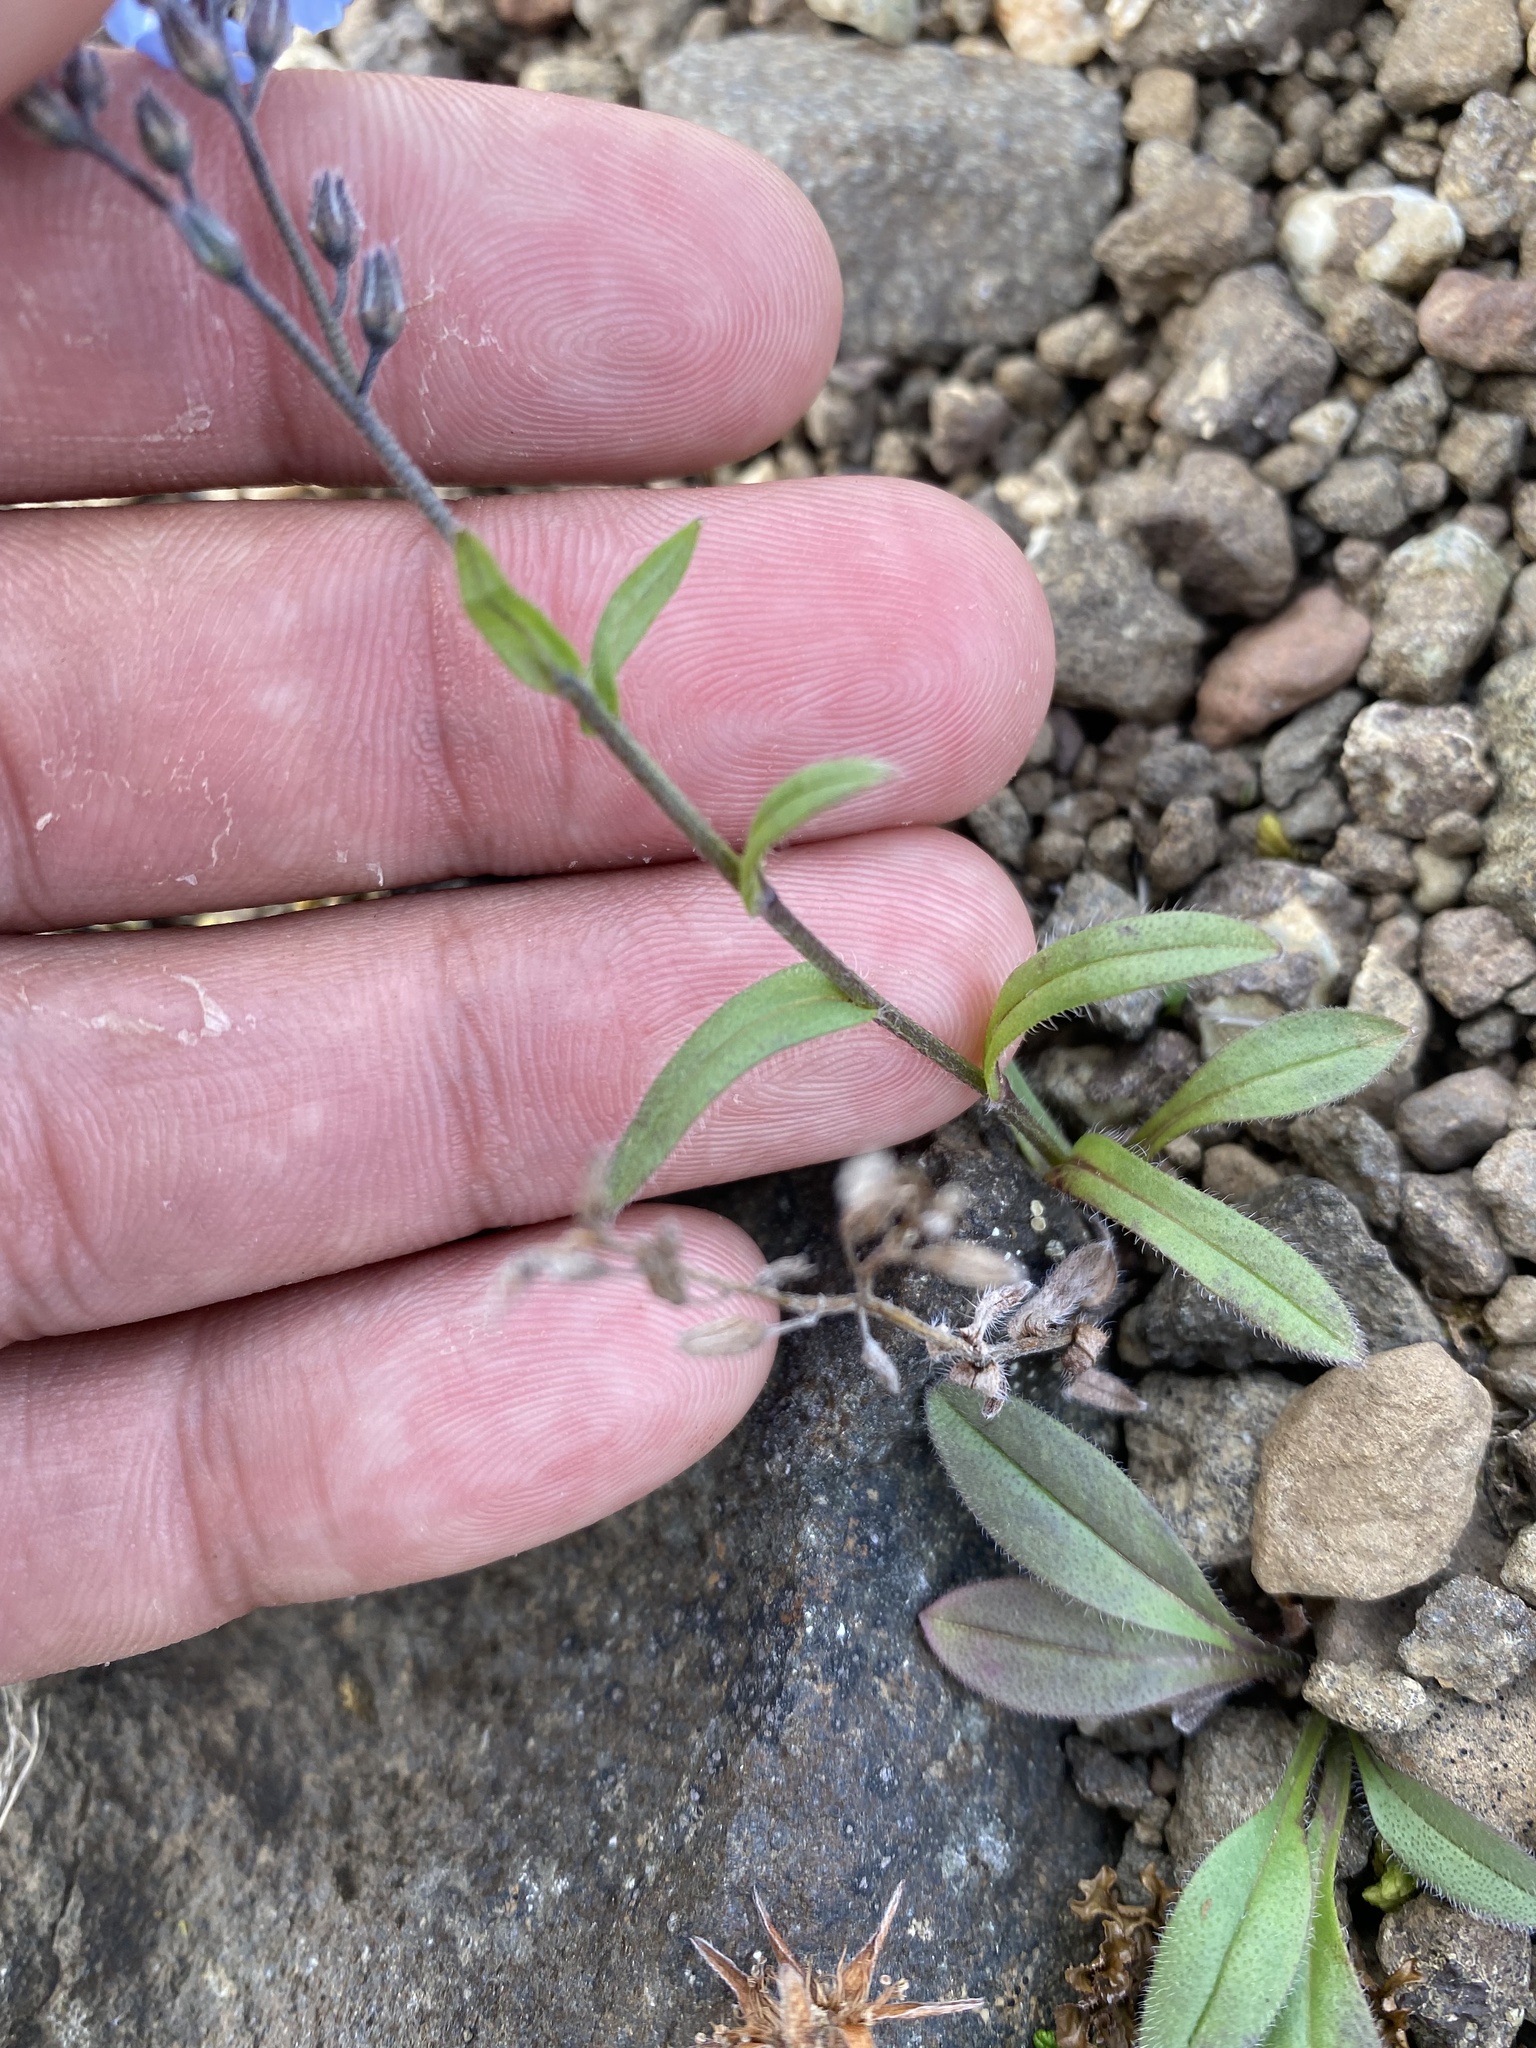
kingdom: Plantae
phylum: Tracheophyta
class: Magnoliopsida
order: Boraginales
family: Boraginaceae
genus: Myosotis
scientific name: Myosotis asiatica
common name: Asian forget-me-not
